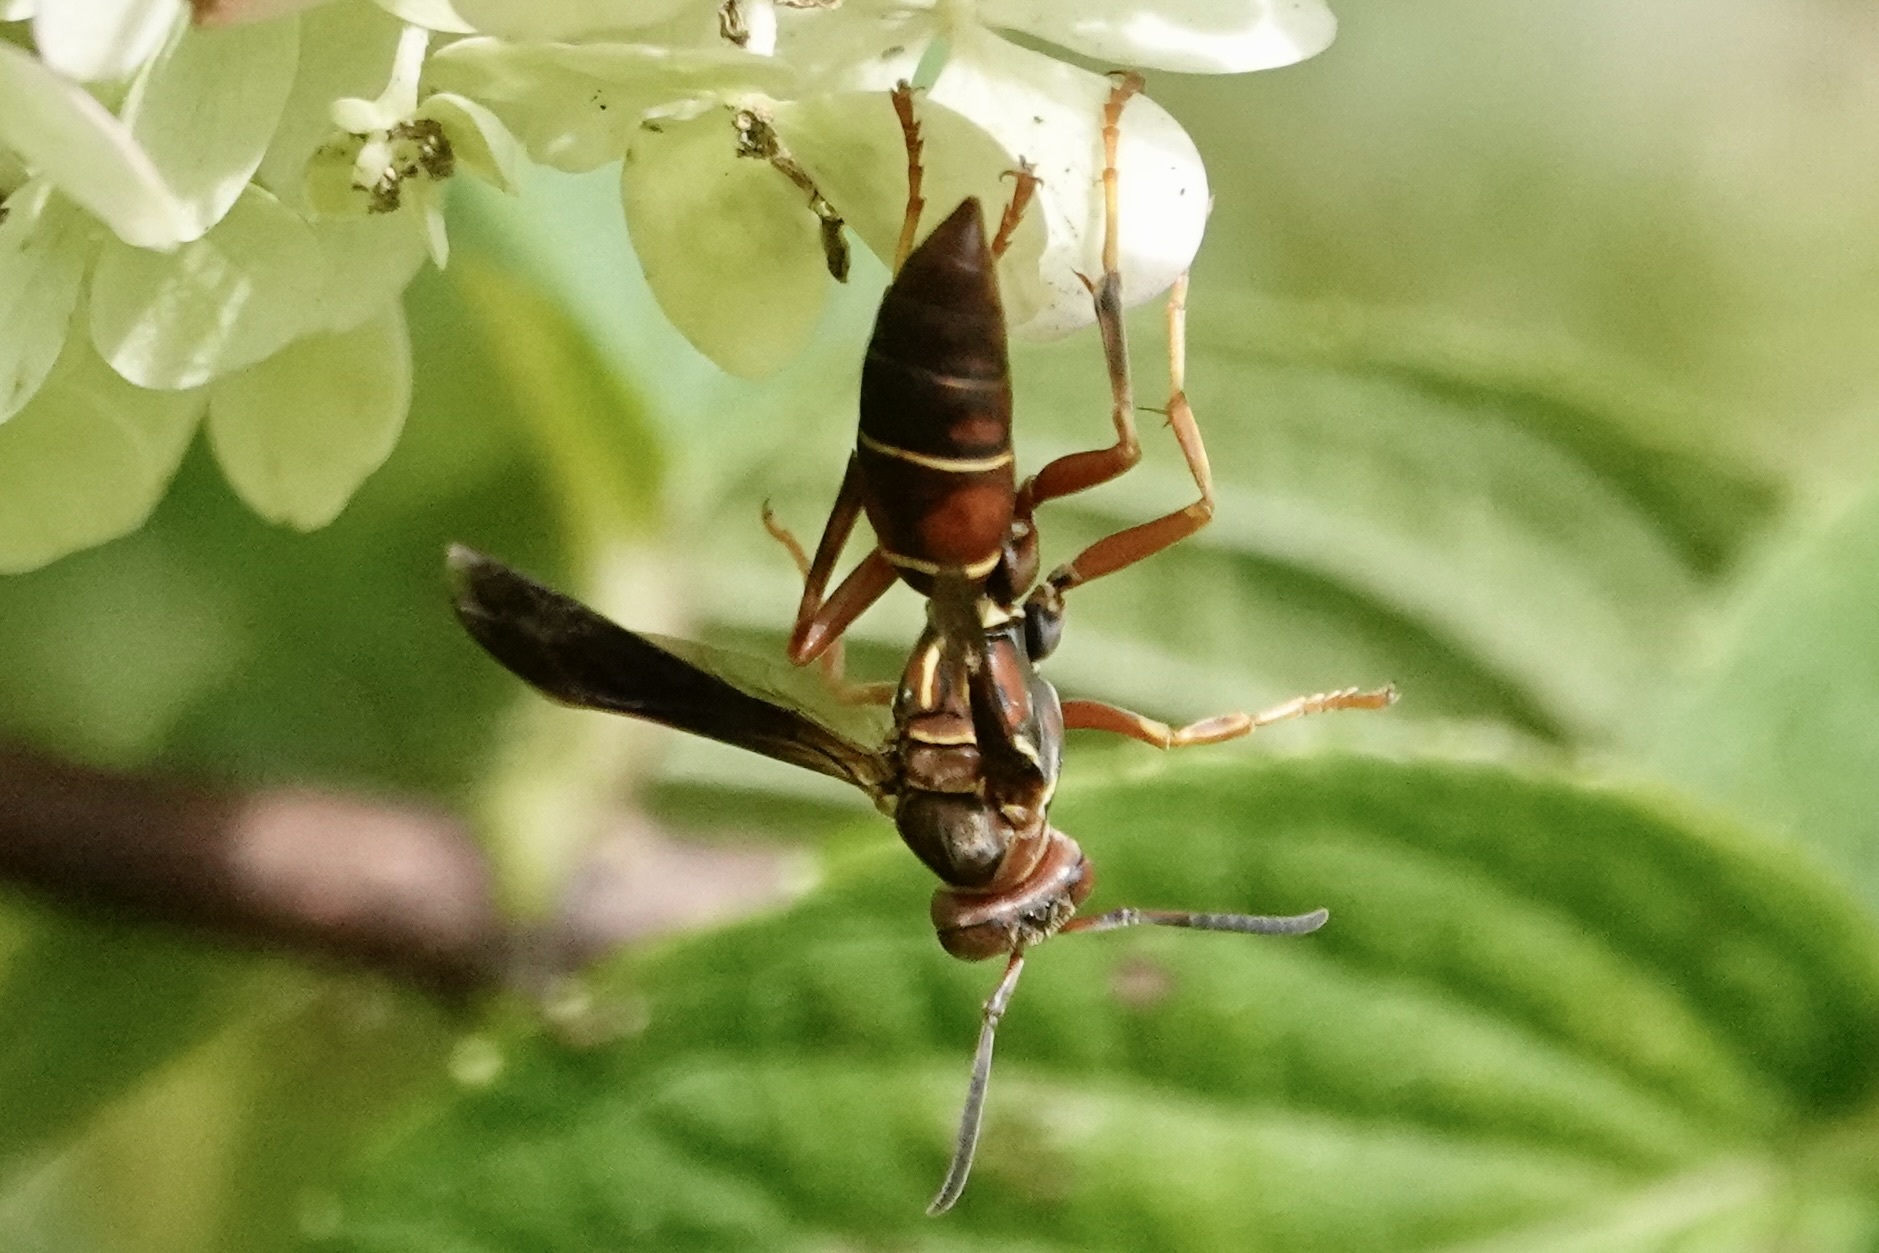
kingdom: Animalia
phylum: Arthropoda
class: Insecta
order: Hymenoptera
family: Eumenidae
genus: Polistes
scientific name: Polistes fuscatus
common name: Dark paper wasp
